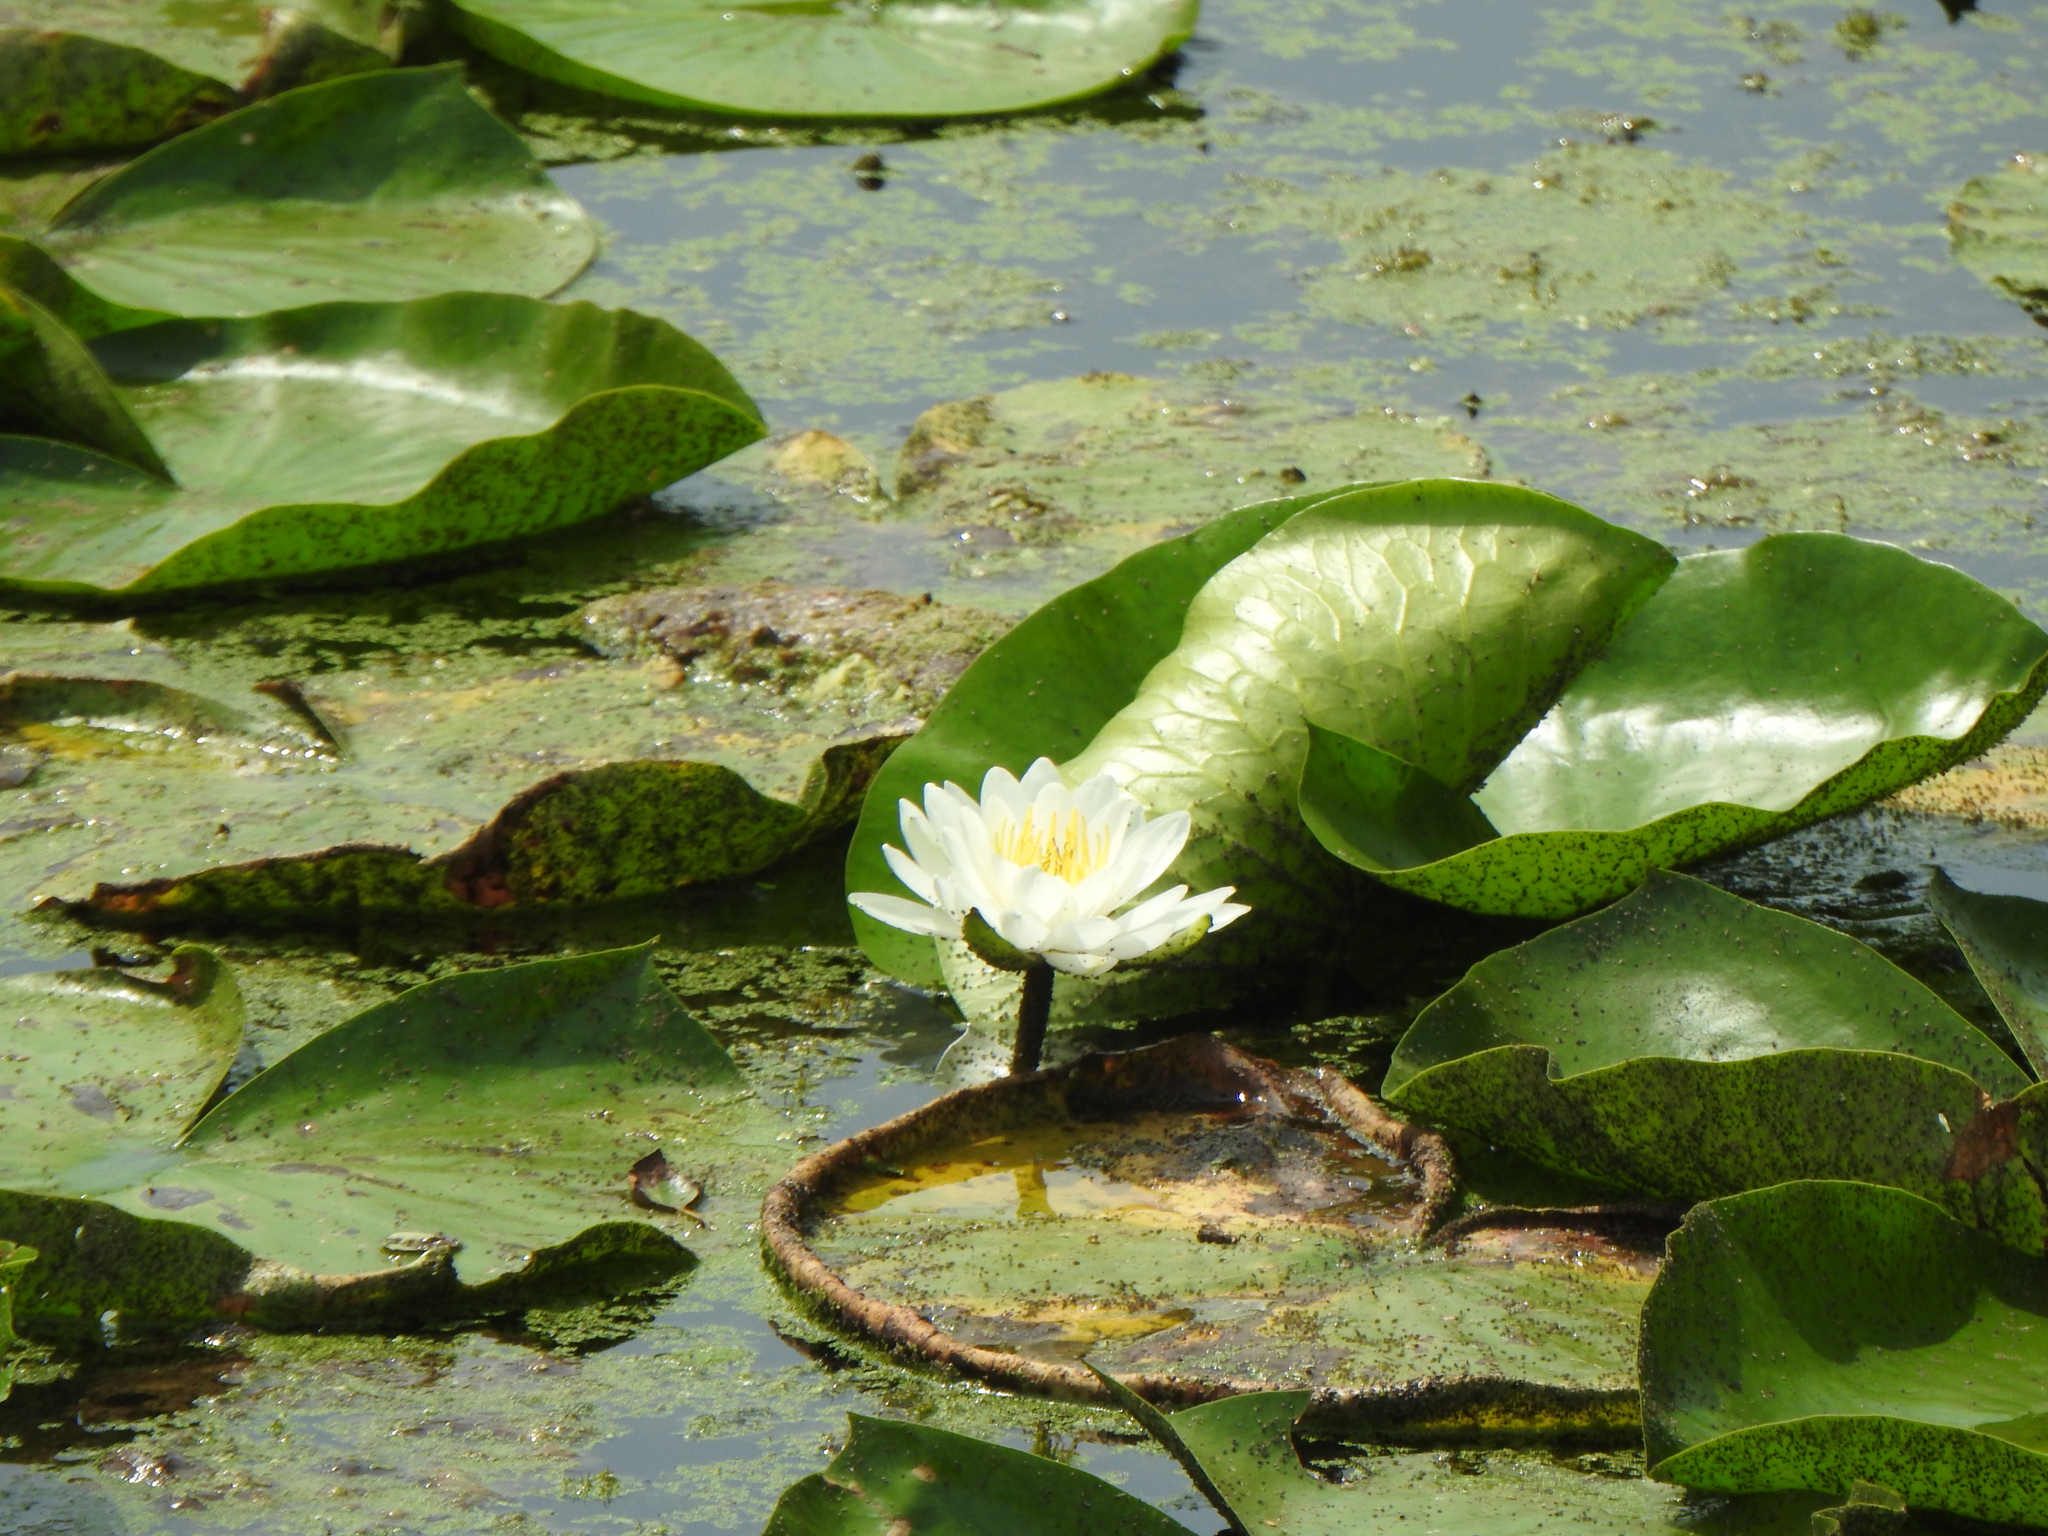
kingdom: Plantae
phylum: Tracheophyta
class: Magnoliopsida
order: Nymphaeales
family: Nymphaeaceae
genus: Nymphaea
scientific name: Nymphaea odorata
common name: Fragrant water-lily
